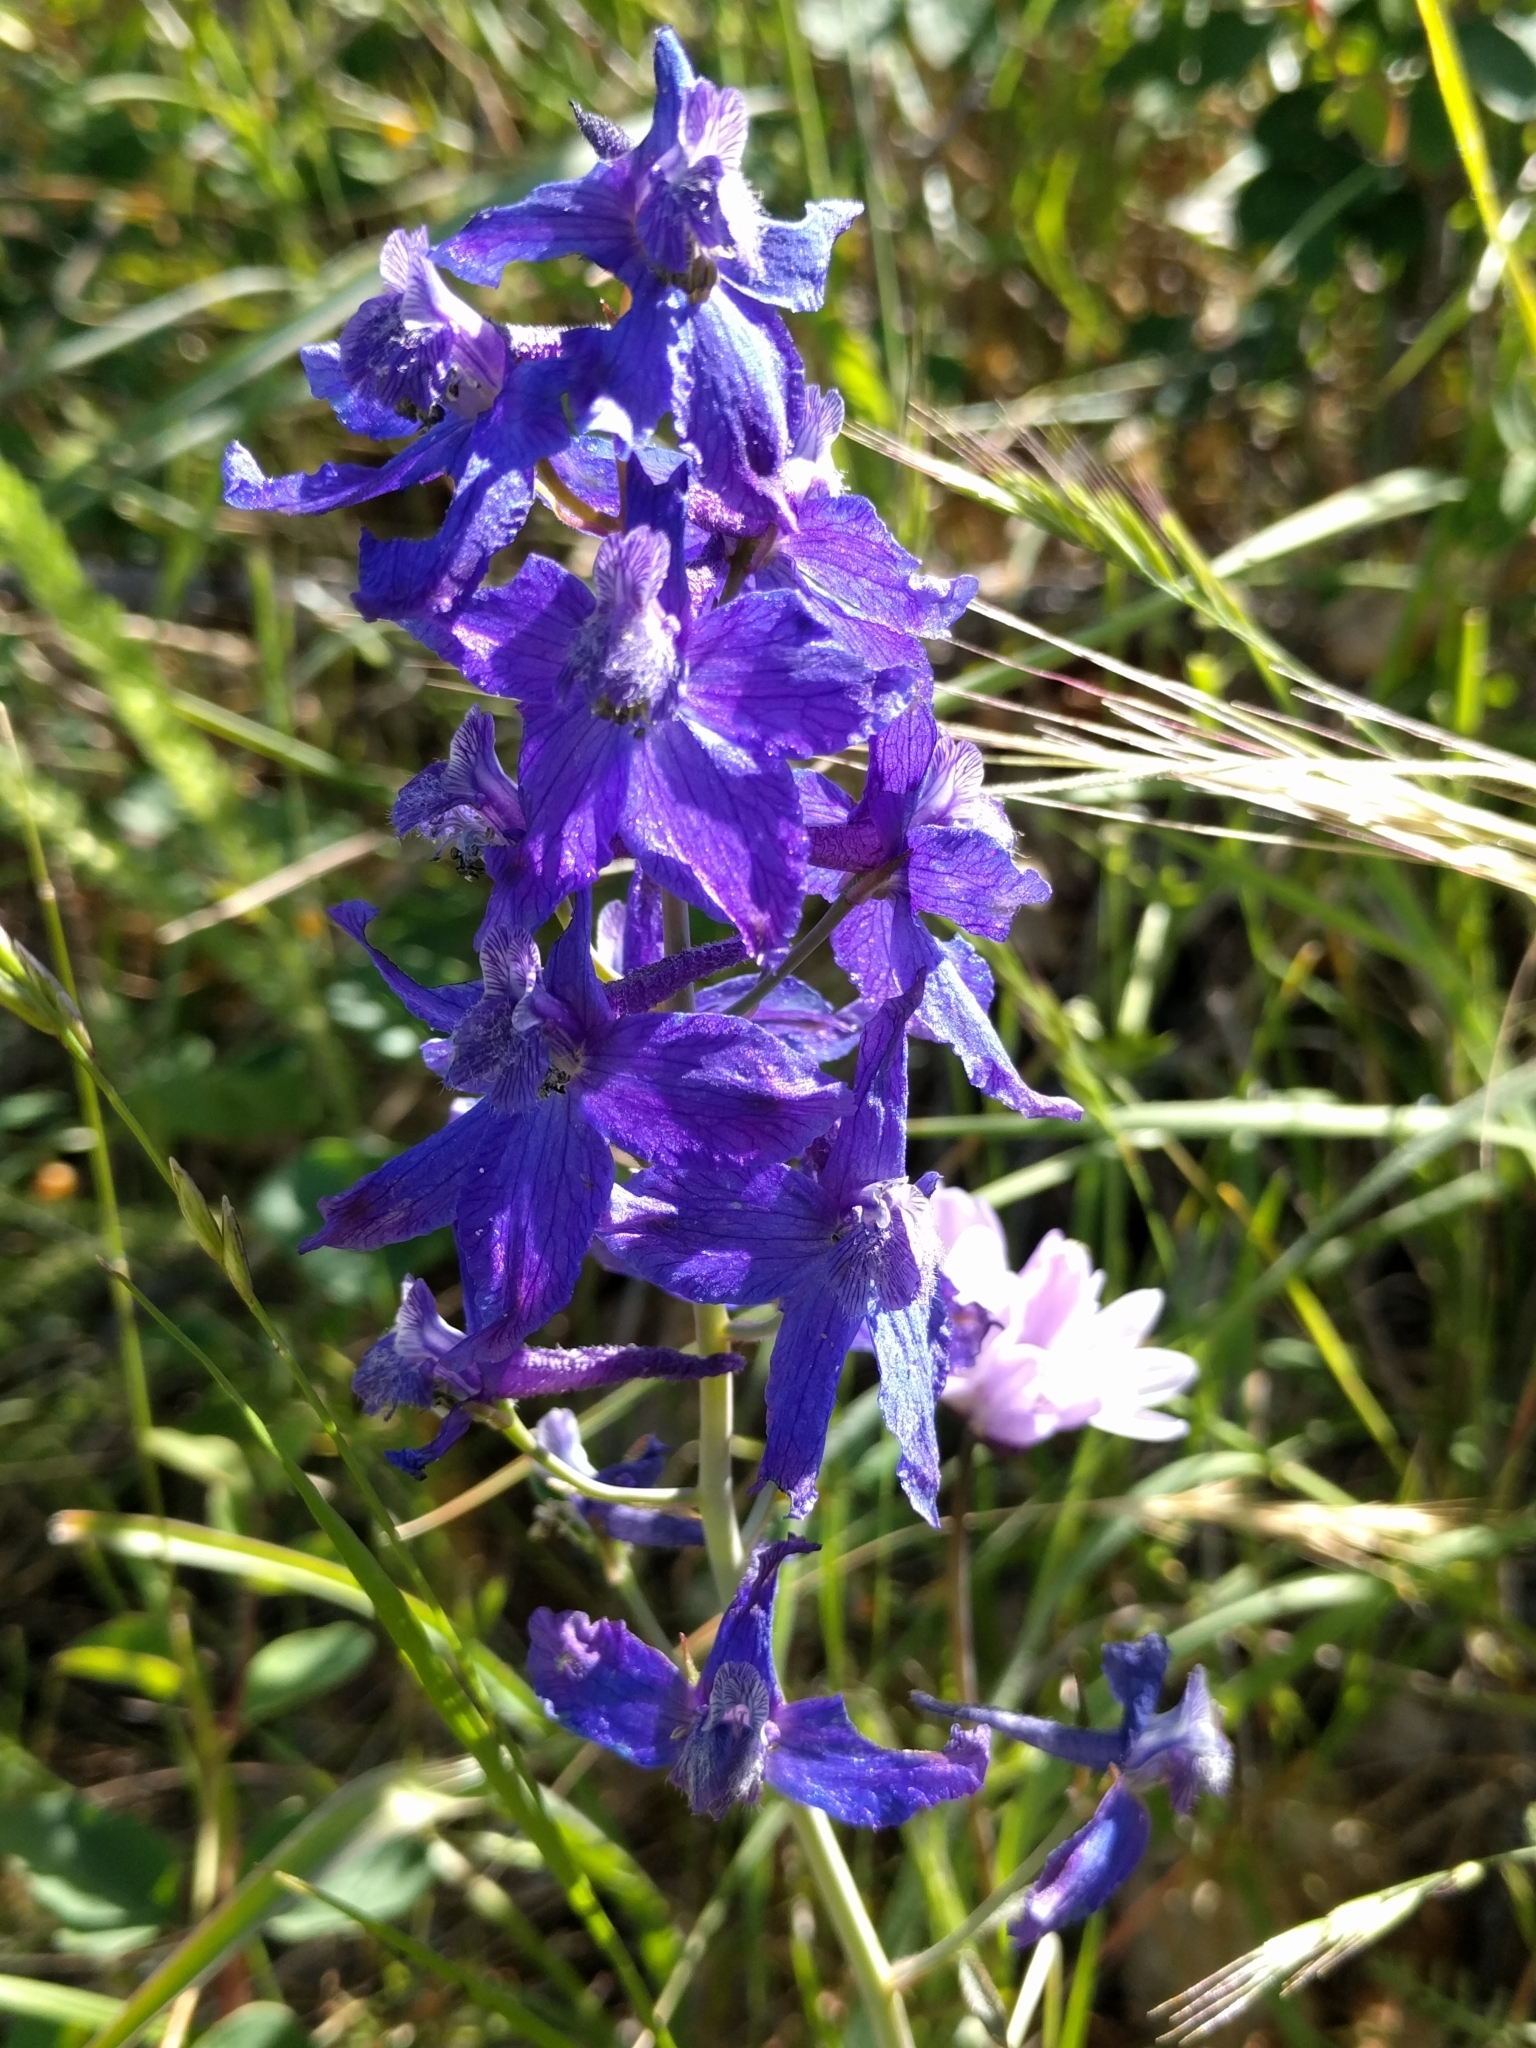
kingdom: Plantae
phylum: Tracheophyta
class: Magnoliopsida
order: Ranunculales
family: Ranunculaceae
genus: Delphinium
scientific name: Delphinium patens
